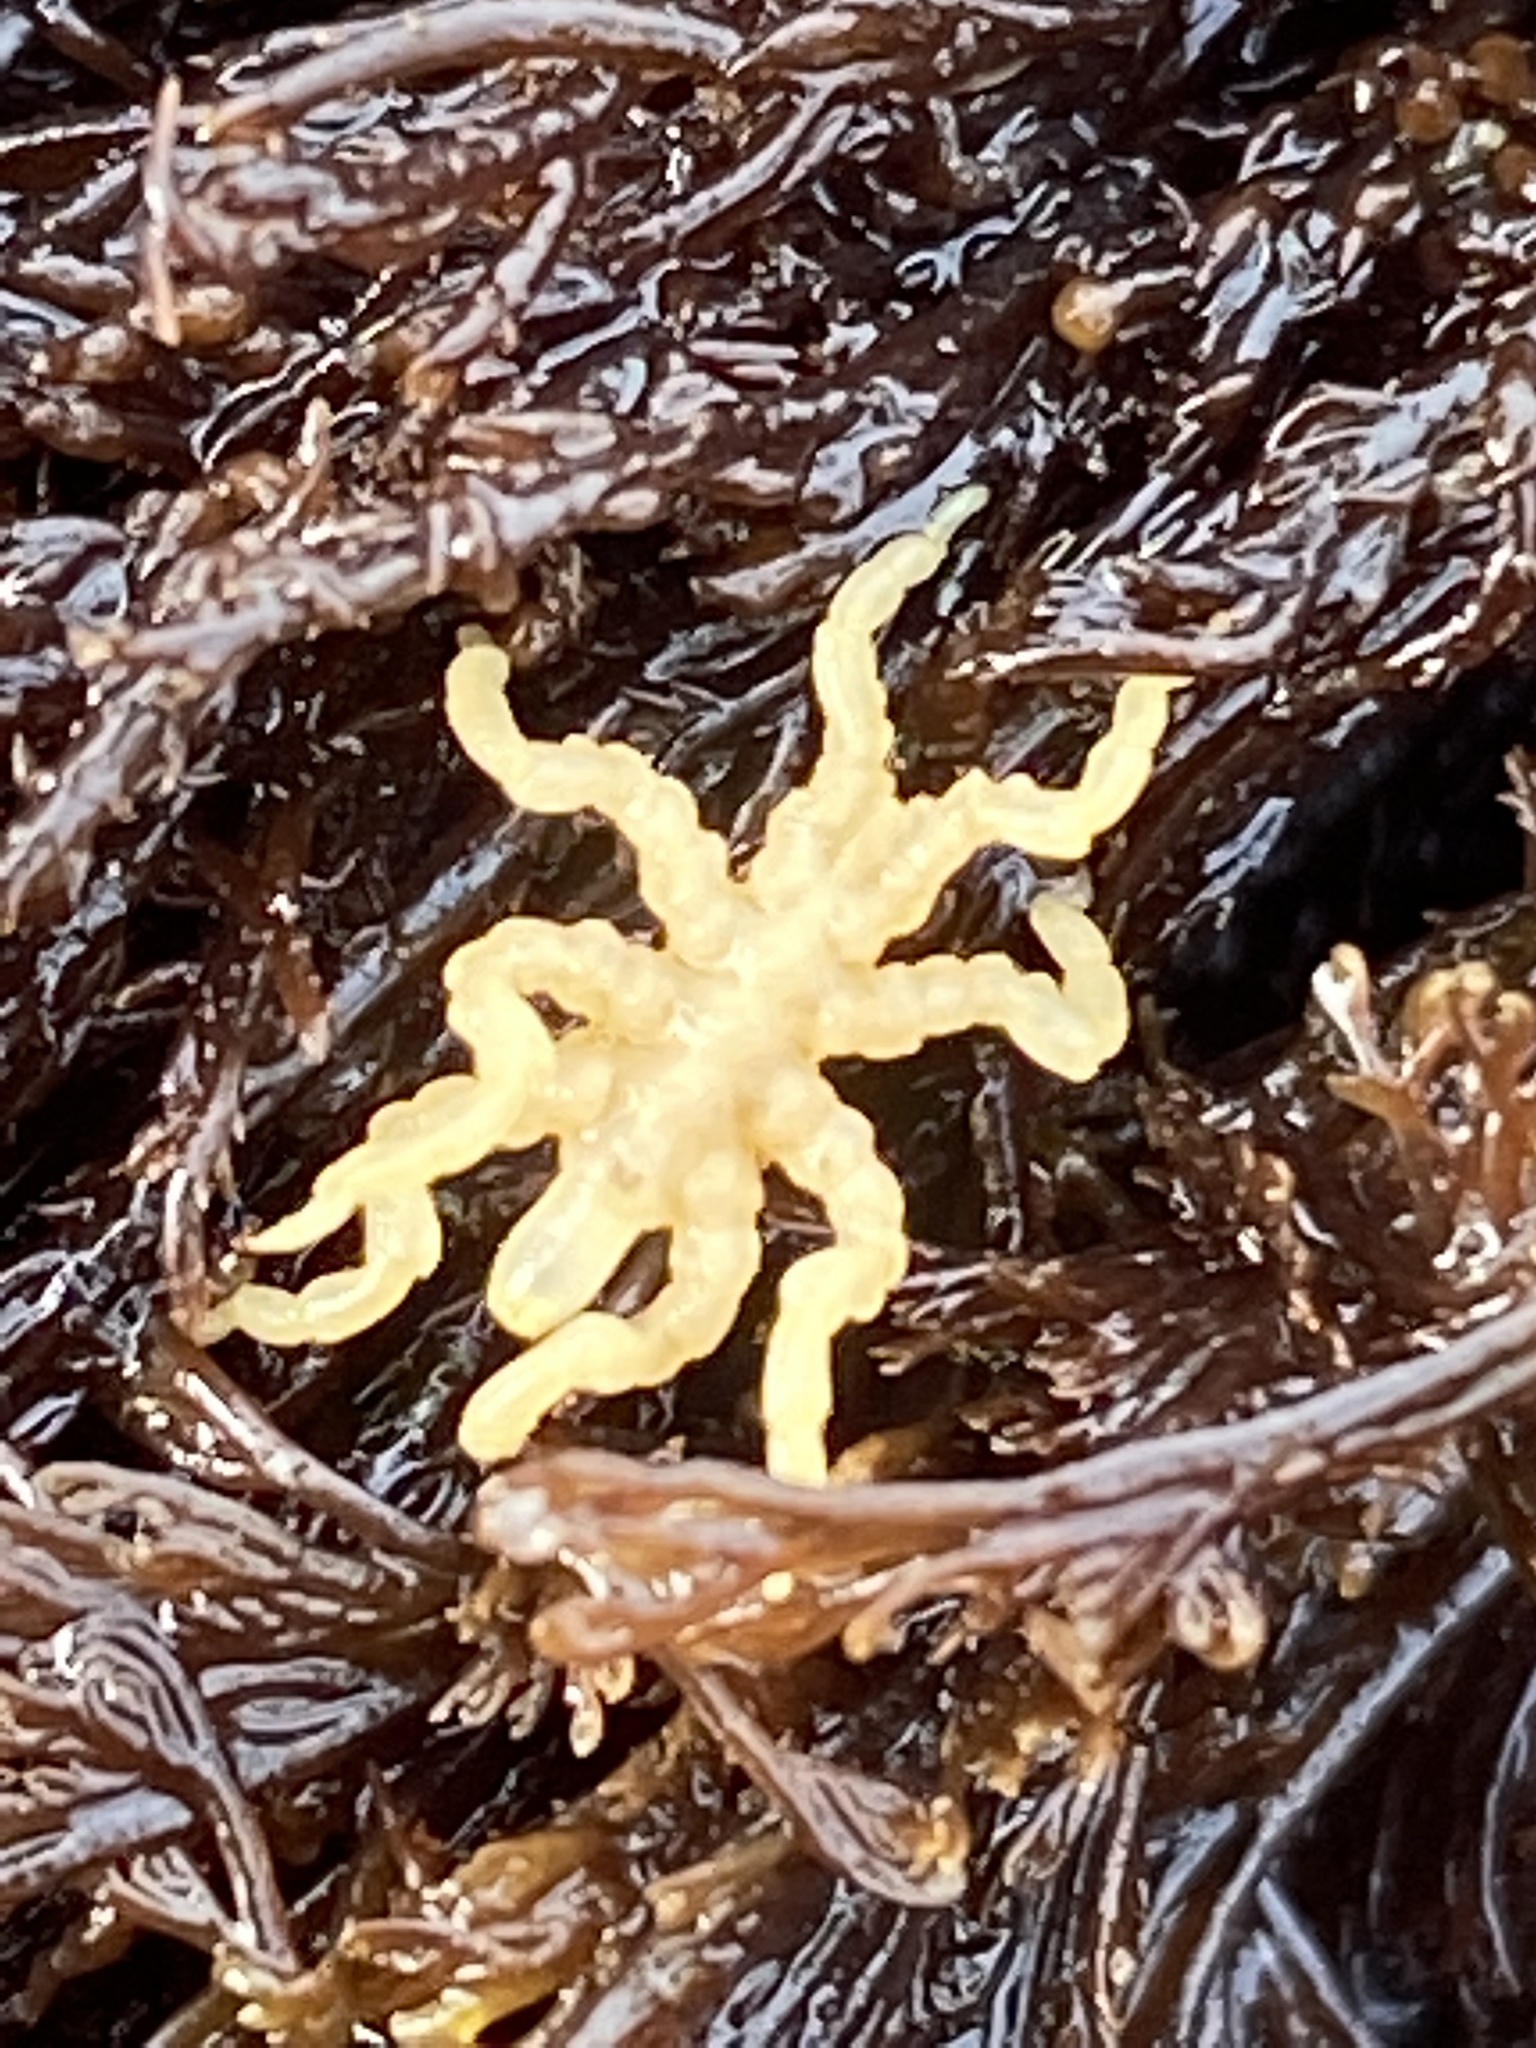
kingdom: Animalia
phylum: Arthropoda
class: Pycnogonida
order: Pantopoda
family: Pycnogonidae
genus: Pycnogonum
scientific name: Pycnogonum stearnsi
